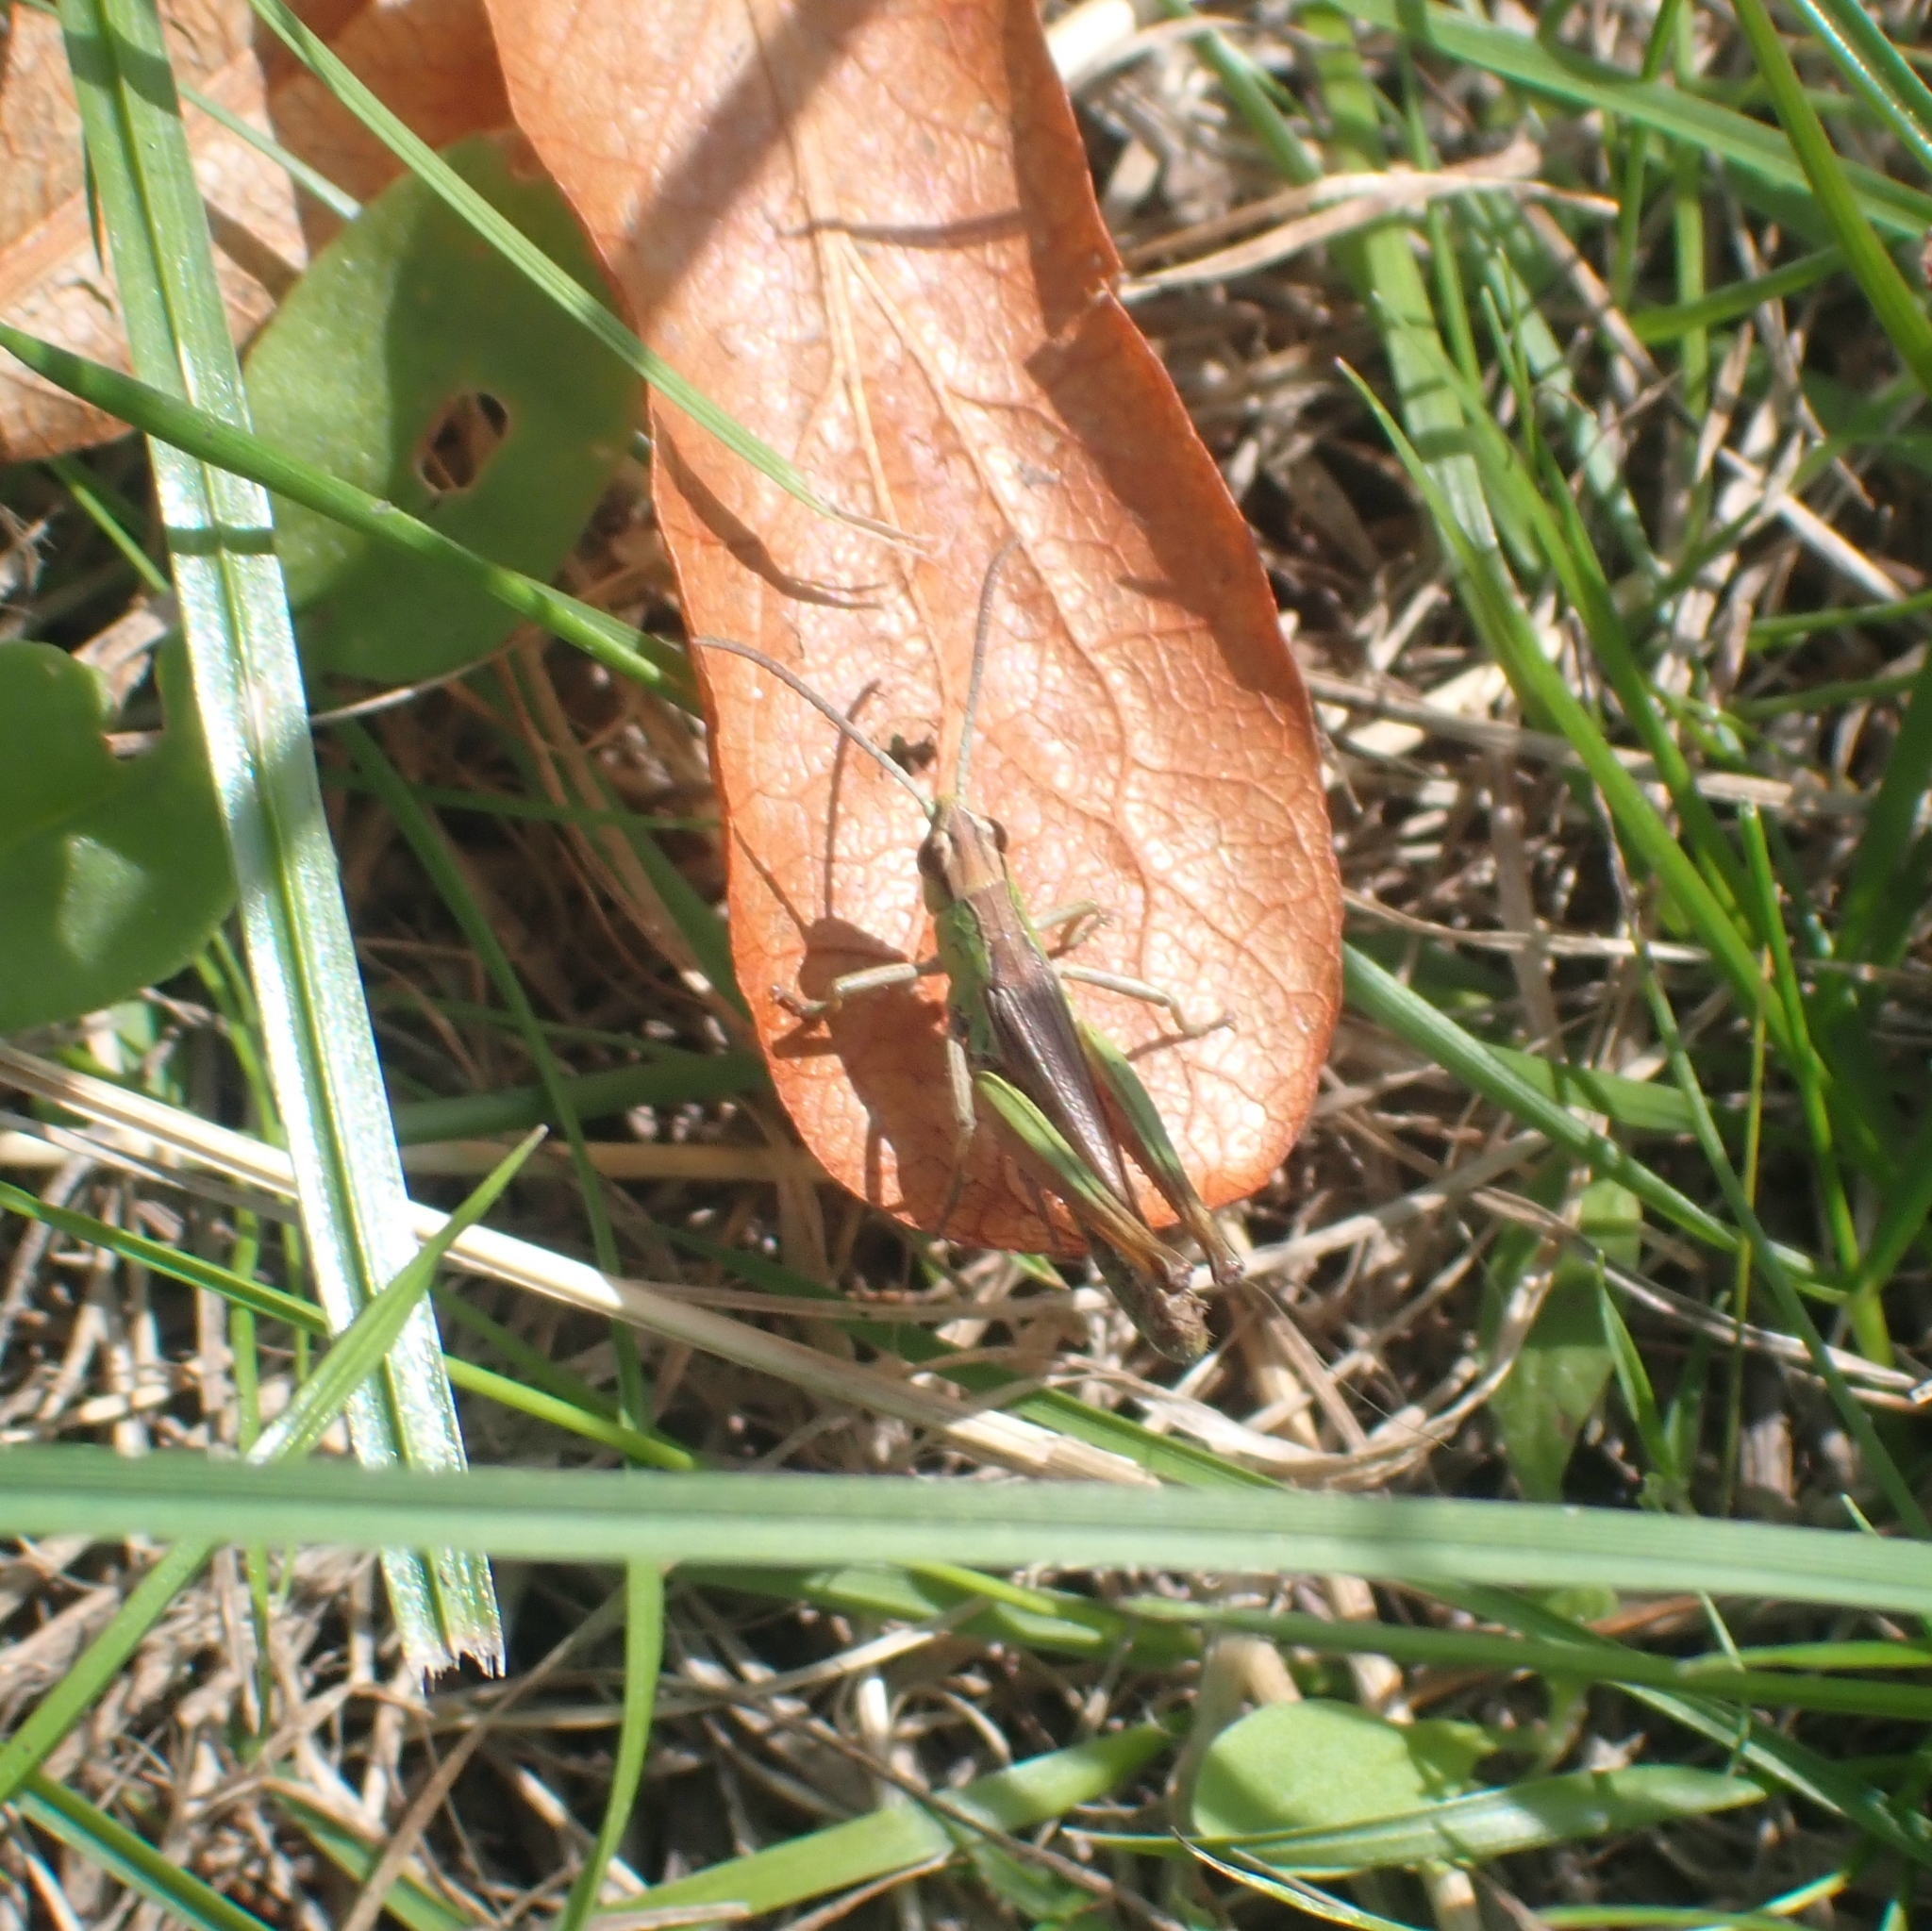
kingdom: Animalia
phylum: Arthropoda
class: Insecta
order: Orthoptera
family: Acrididae
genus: Pseudochorthippus
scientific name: Pseudochorthippus parallelus
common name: Meadow grasshopper
